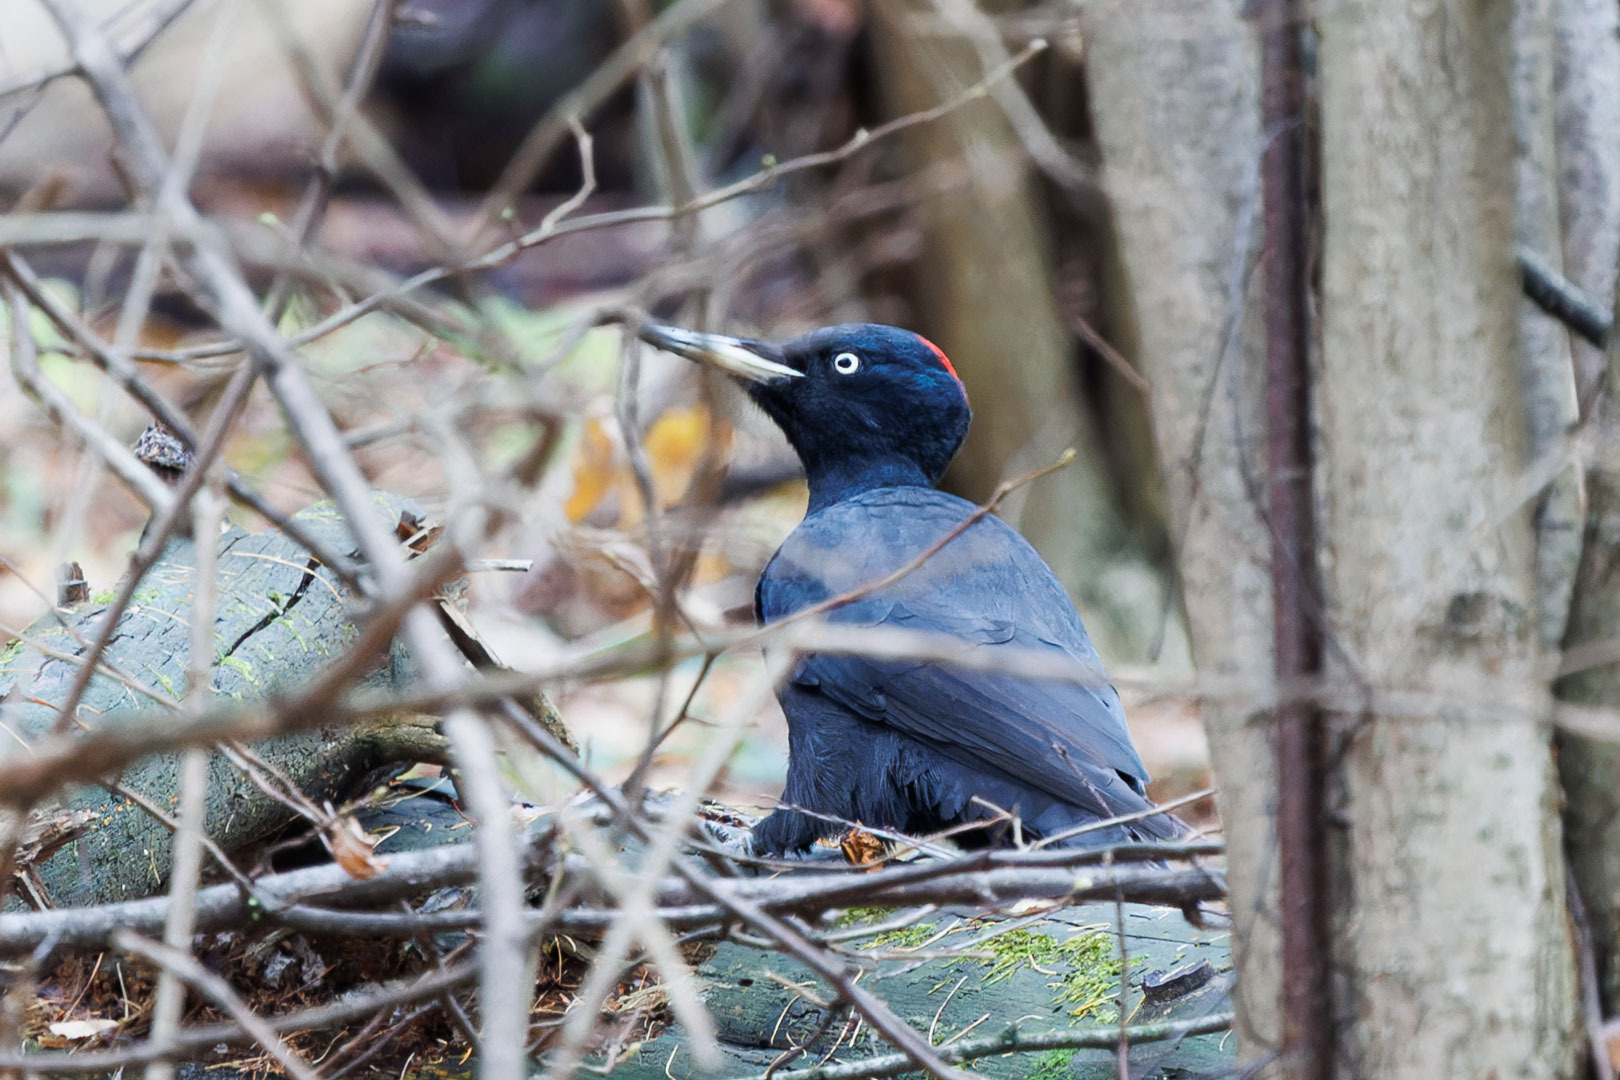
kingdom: Animalia
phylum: Chordata
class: Aves
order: Piciformes
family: Picidae
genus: Dryocopus
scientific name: Dryocopus martius
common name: Black woodpecker
